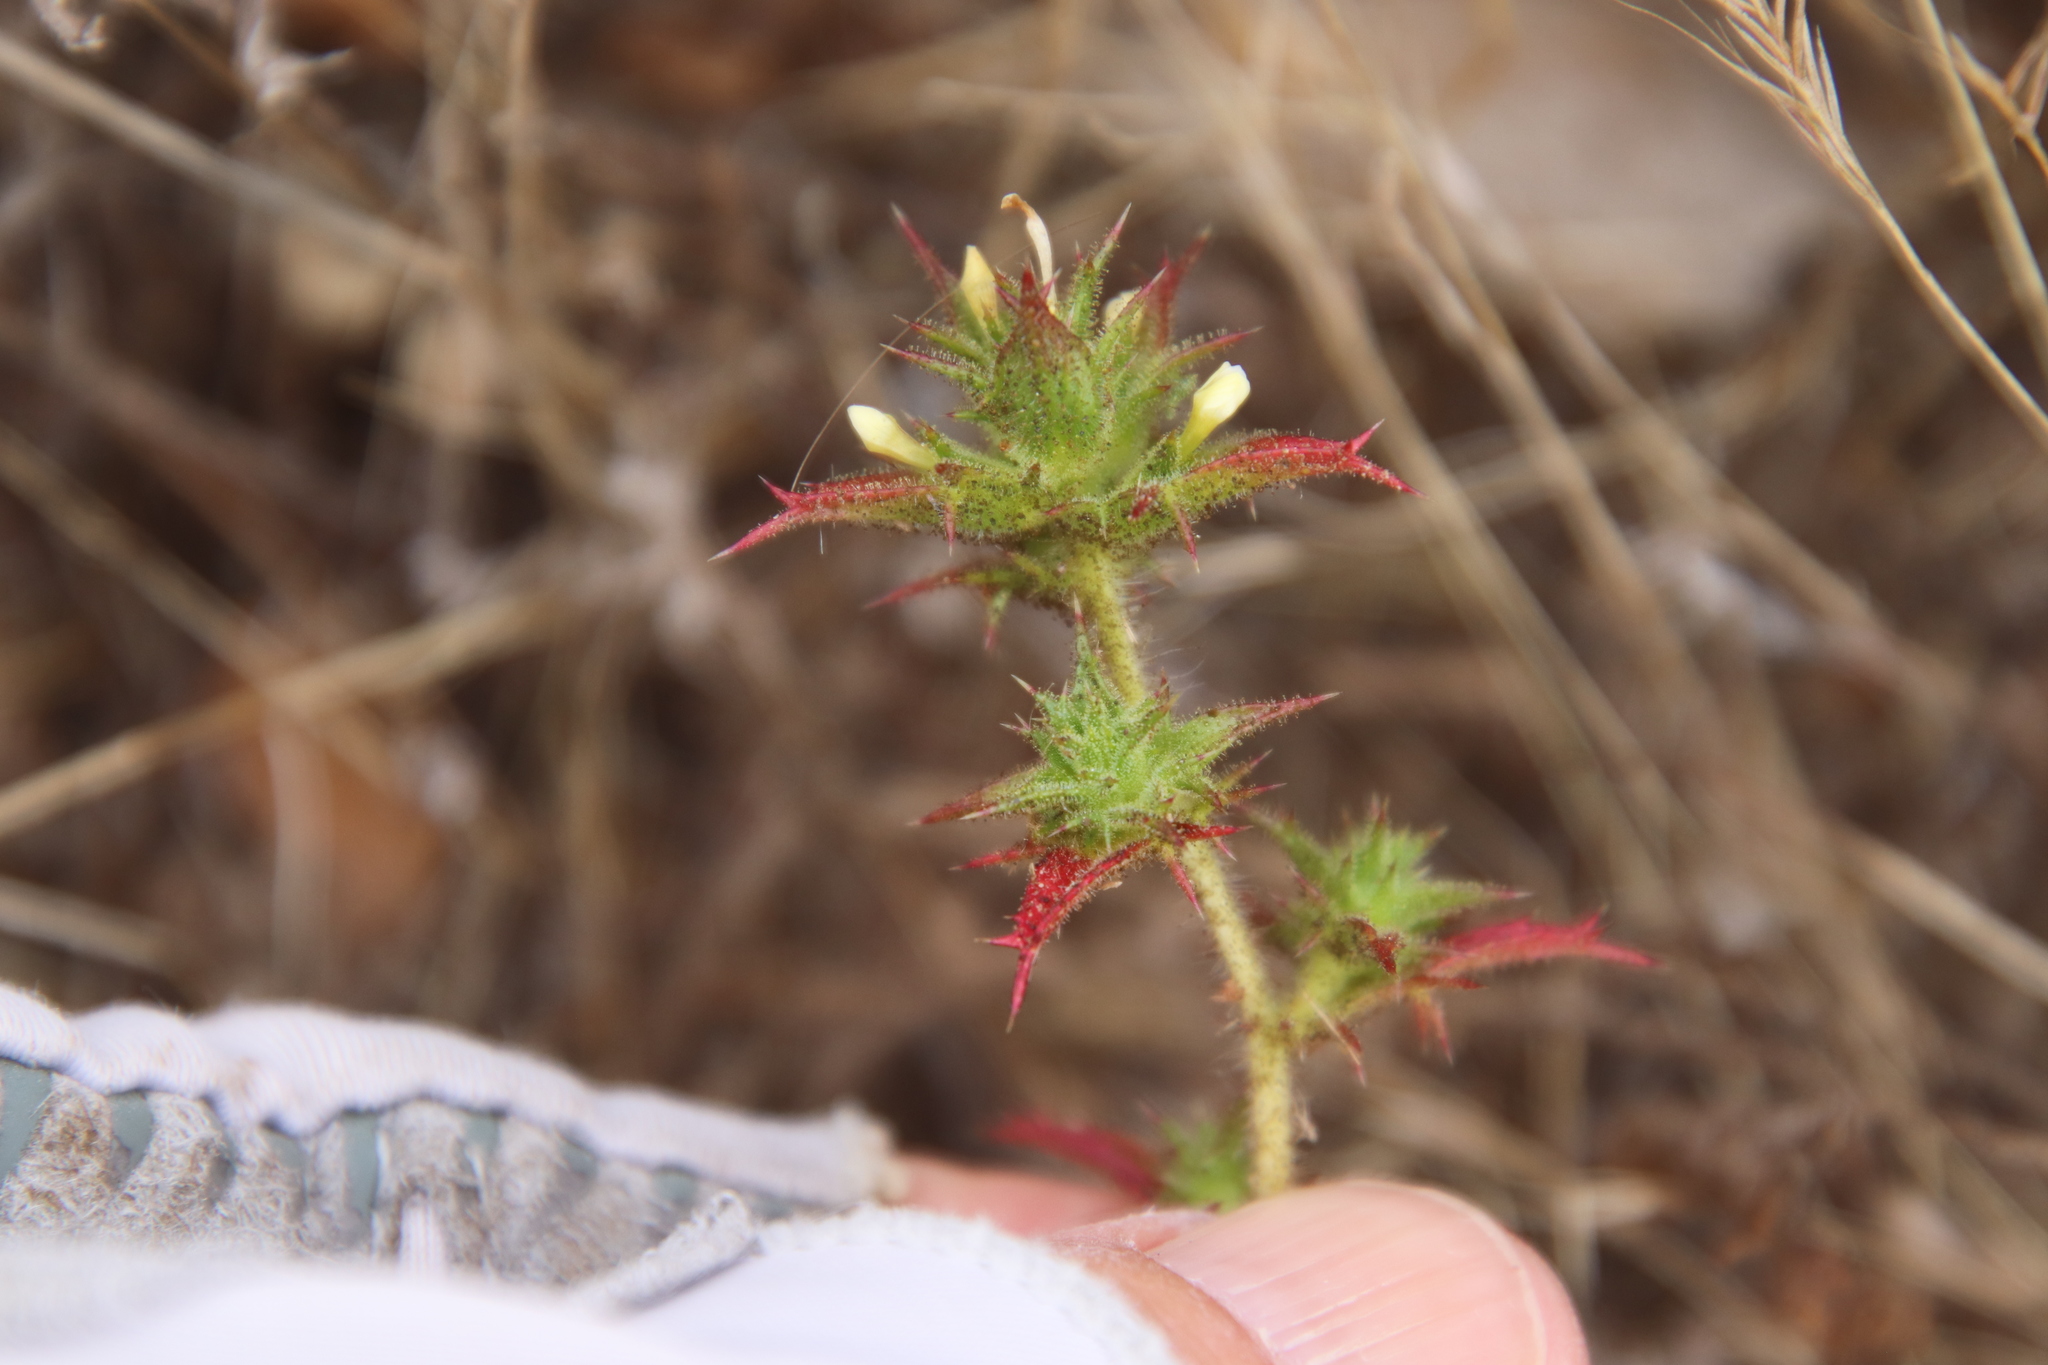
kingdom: Plantae
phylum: Tracheophyta
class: Magnoliopsida
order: Ericales
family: Polemoniaceae
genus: Navarretia
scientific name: Navarretia atractyloides
